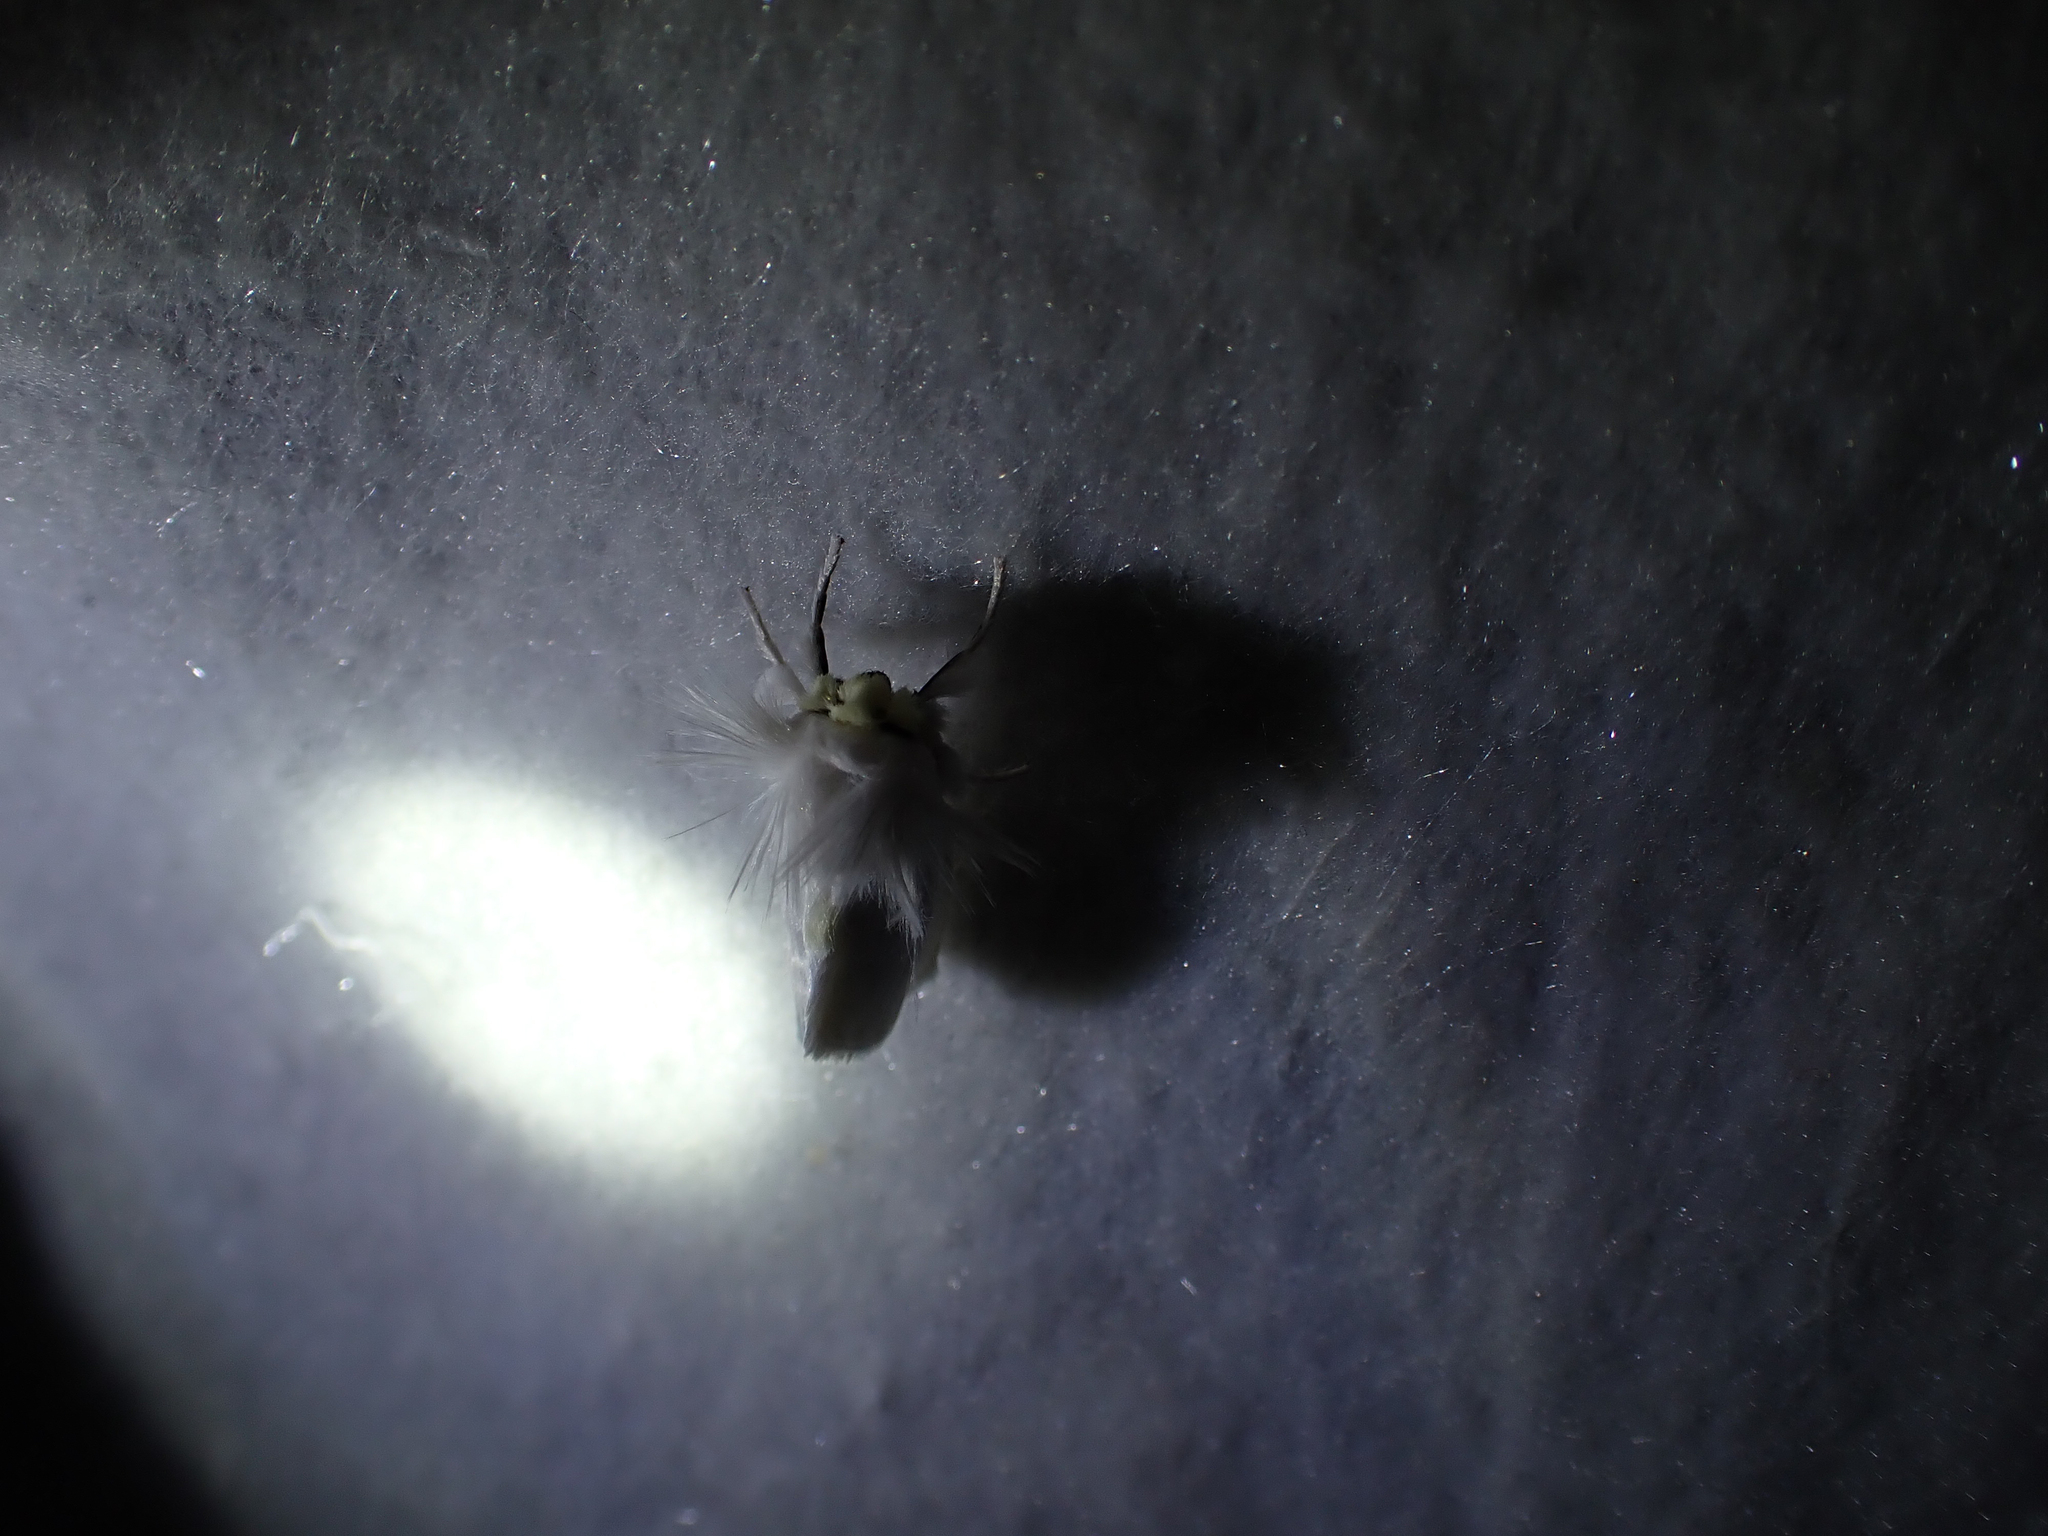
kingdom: Animalia
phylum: Arthropoda
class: Insecta
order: Lepidoptera
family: Megalopygidae
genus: Norape
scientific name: Norape cretata
